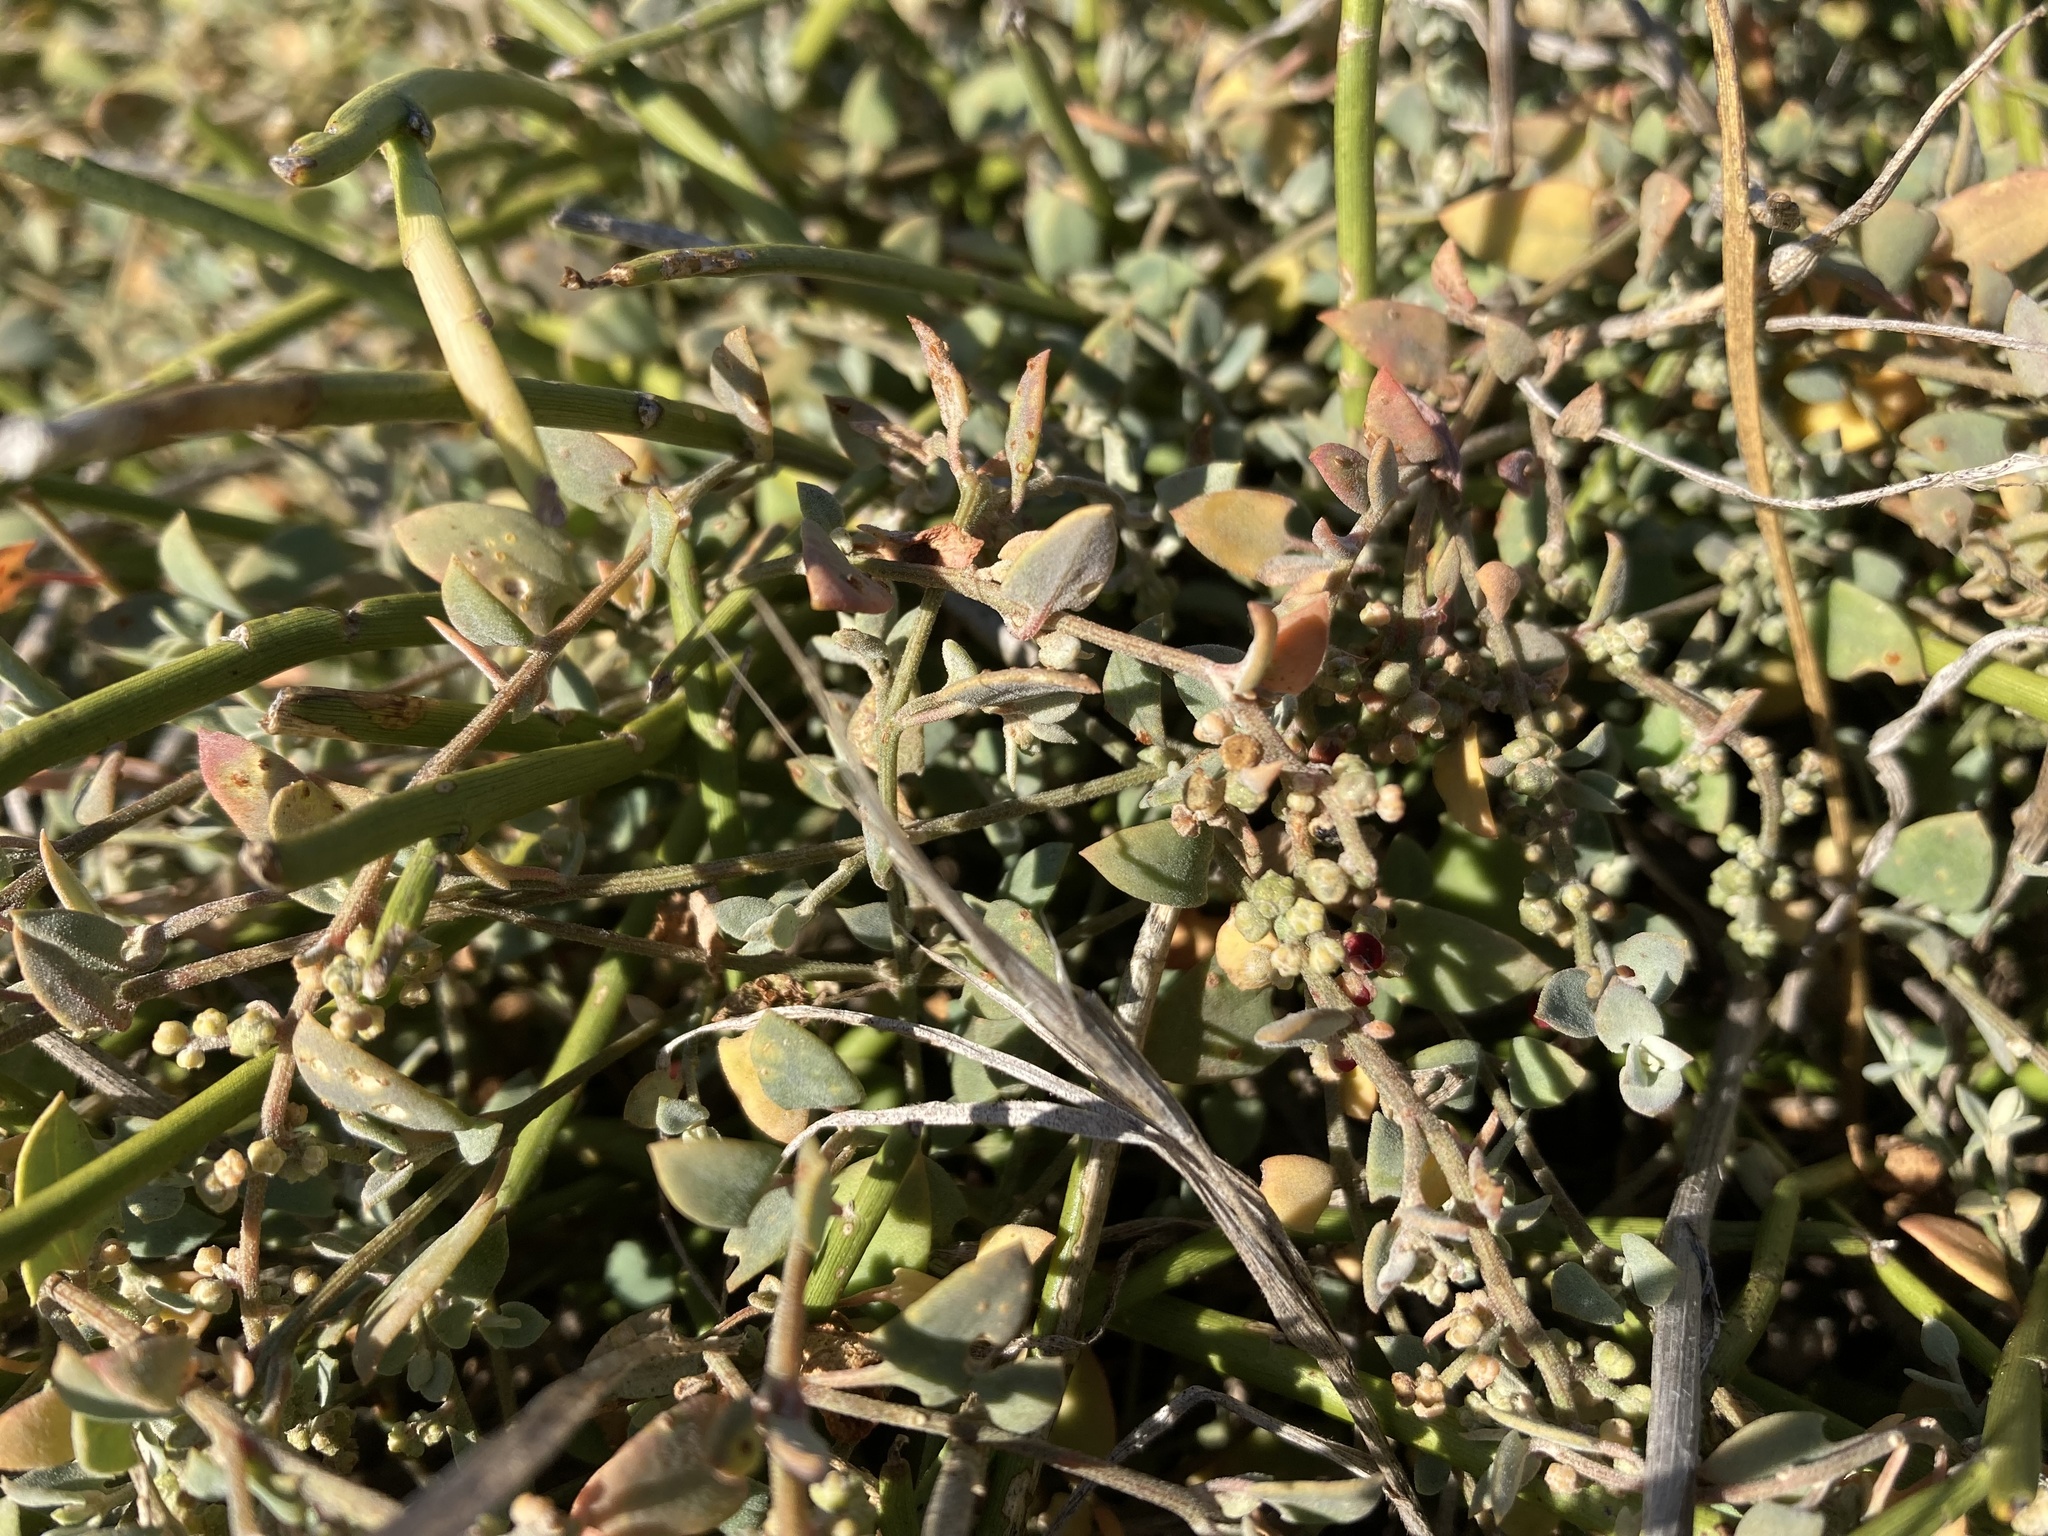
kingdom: Plantae
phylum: Tracheophyta
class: Magnoliopsida
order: Caryophyllales
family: Amaranthaceae
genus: Chenopodium
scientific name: Chenopodium triandrum
